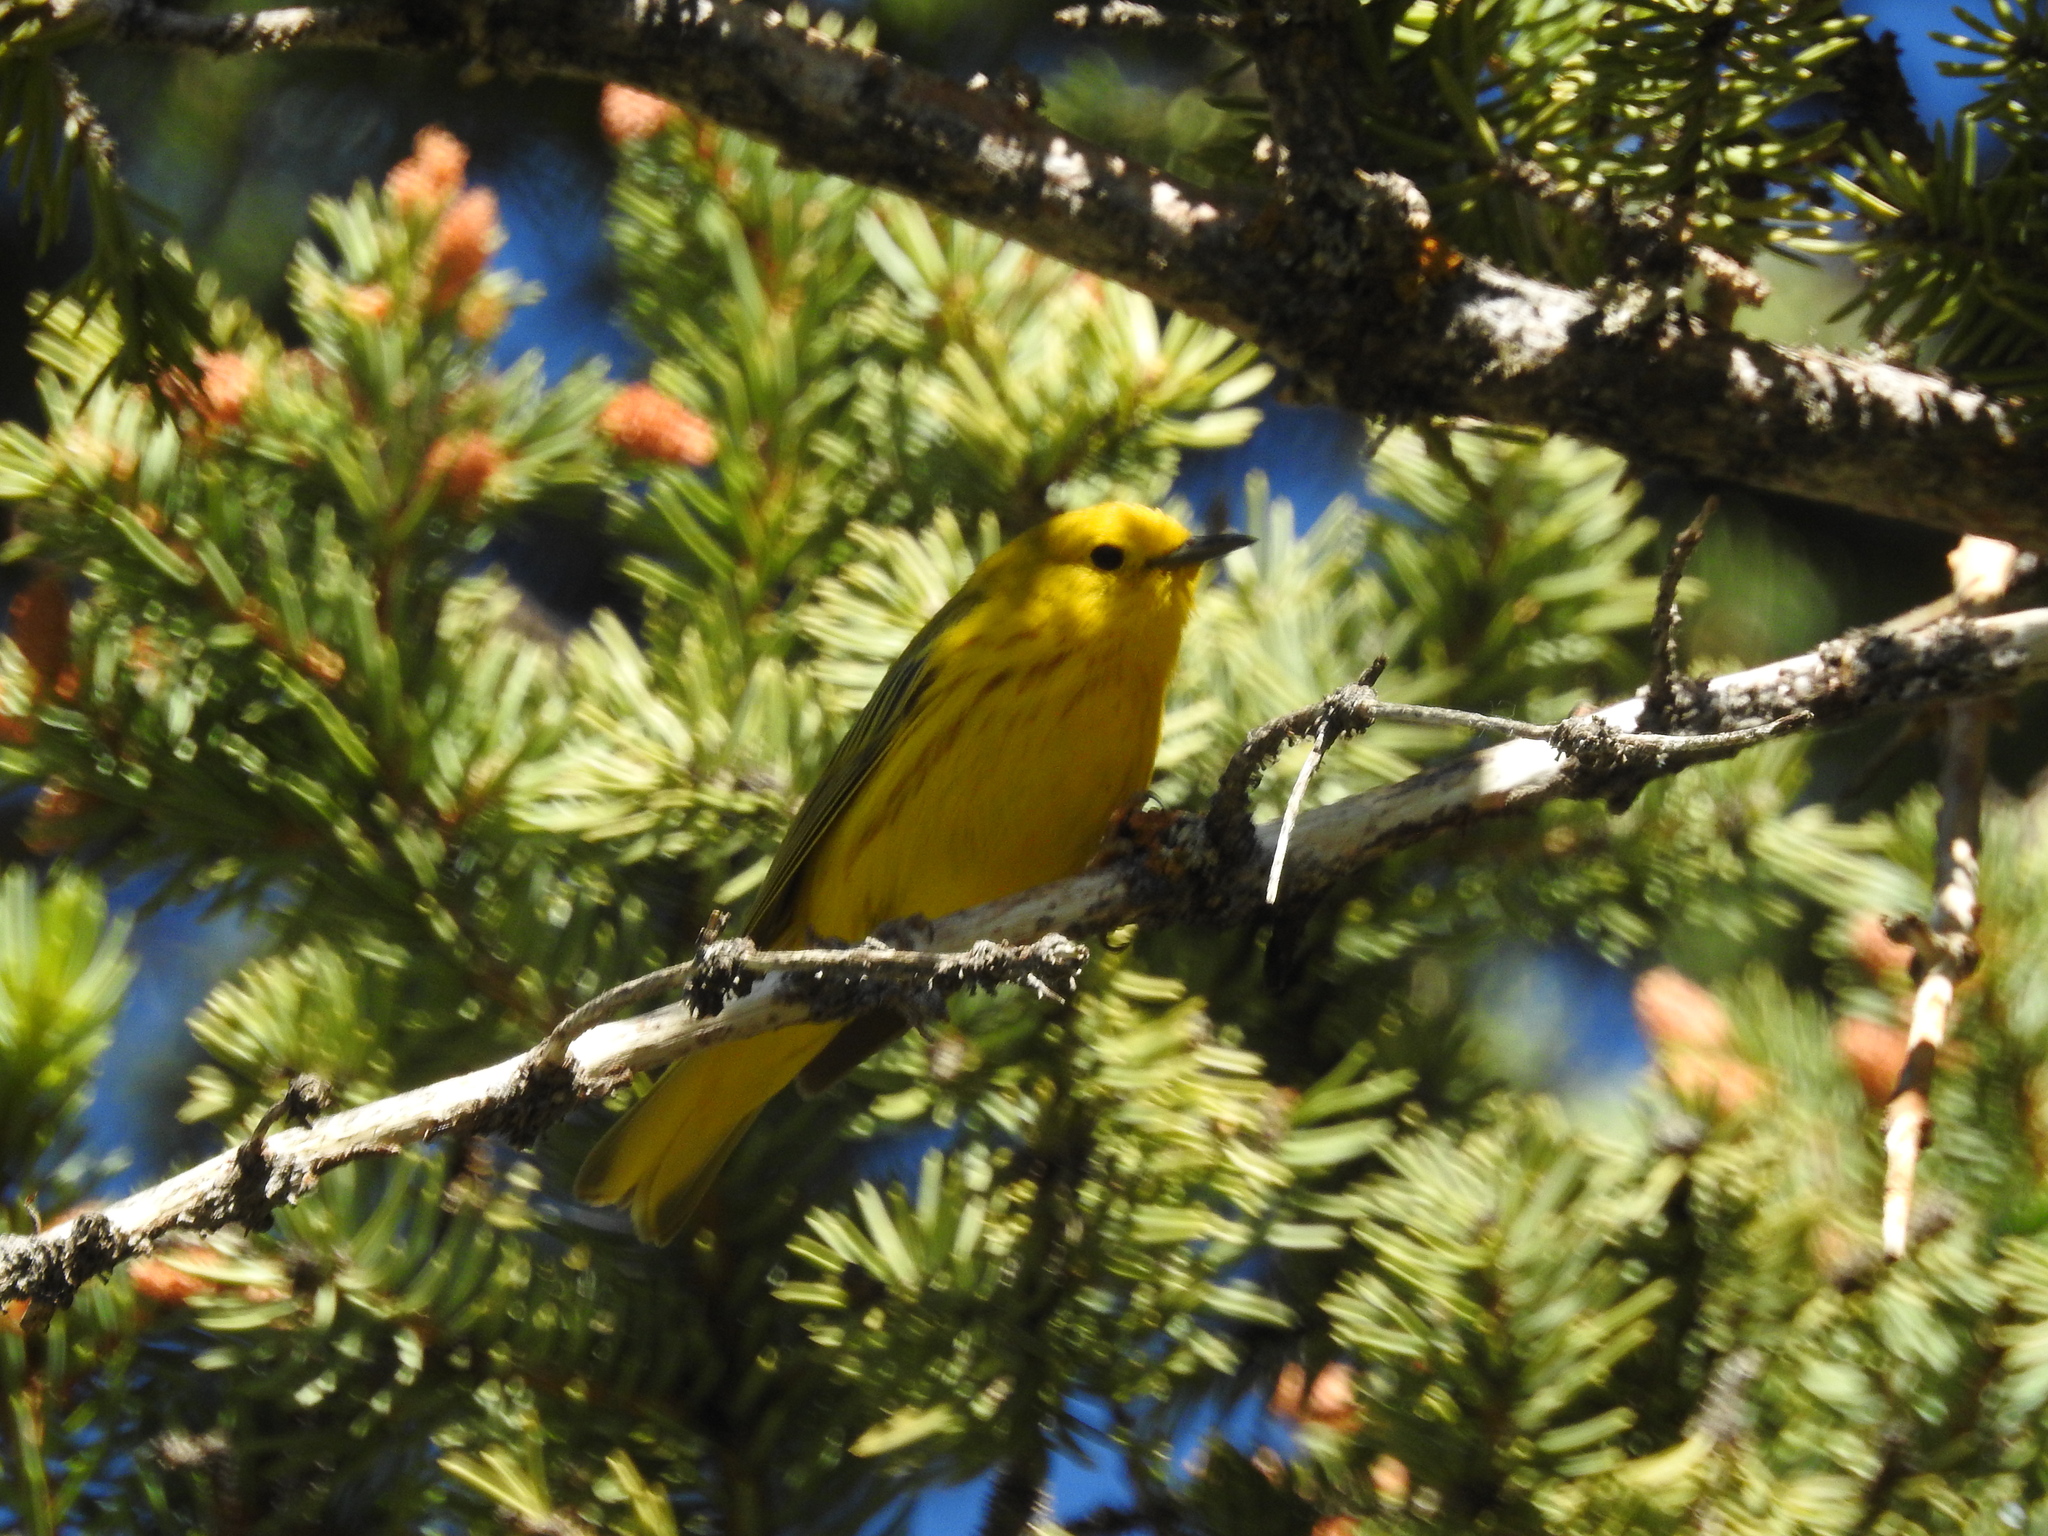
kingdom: Animalia
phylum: Chordata
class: Aves
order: Passeriformes
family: Parulidae
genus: Setophaga
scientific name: Setophaga petechia
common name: Yellow warbler
